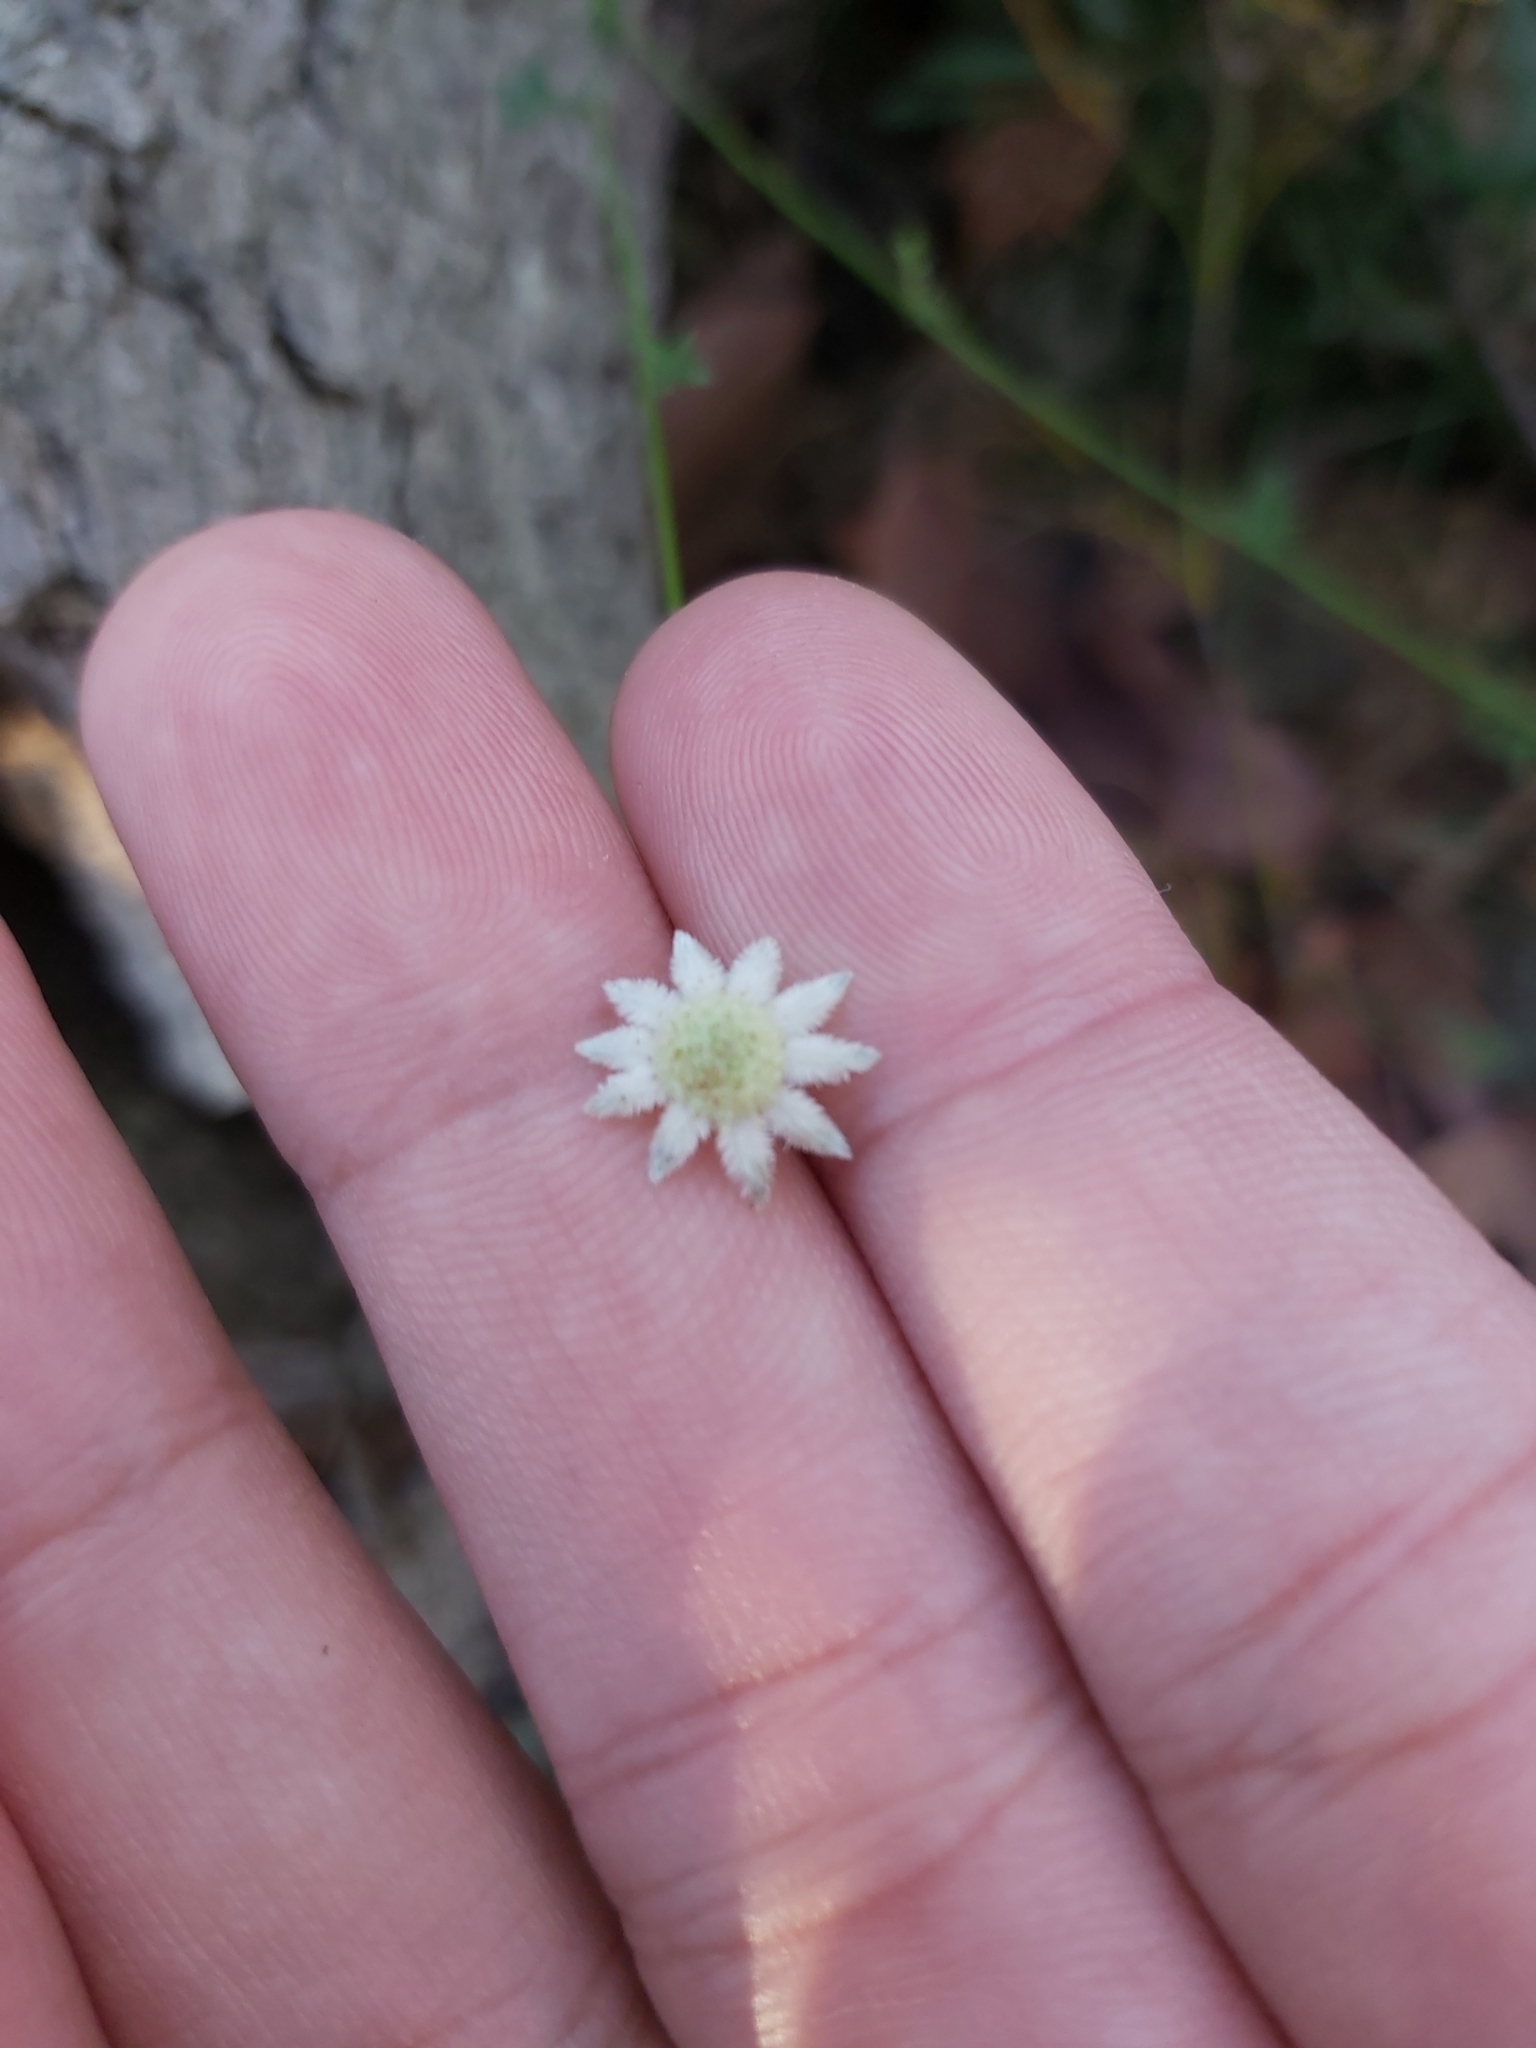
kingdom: Plantae
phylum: Tracheophyta
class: Magnoliopsida
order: Apiales
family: Apiaceae
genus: Actinotus
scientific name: Actinotus minor
